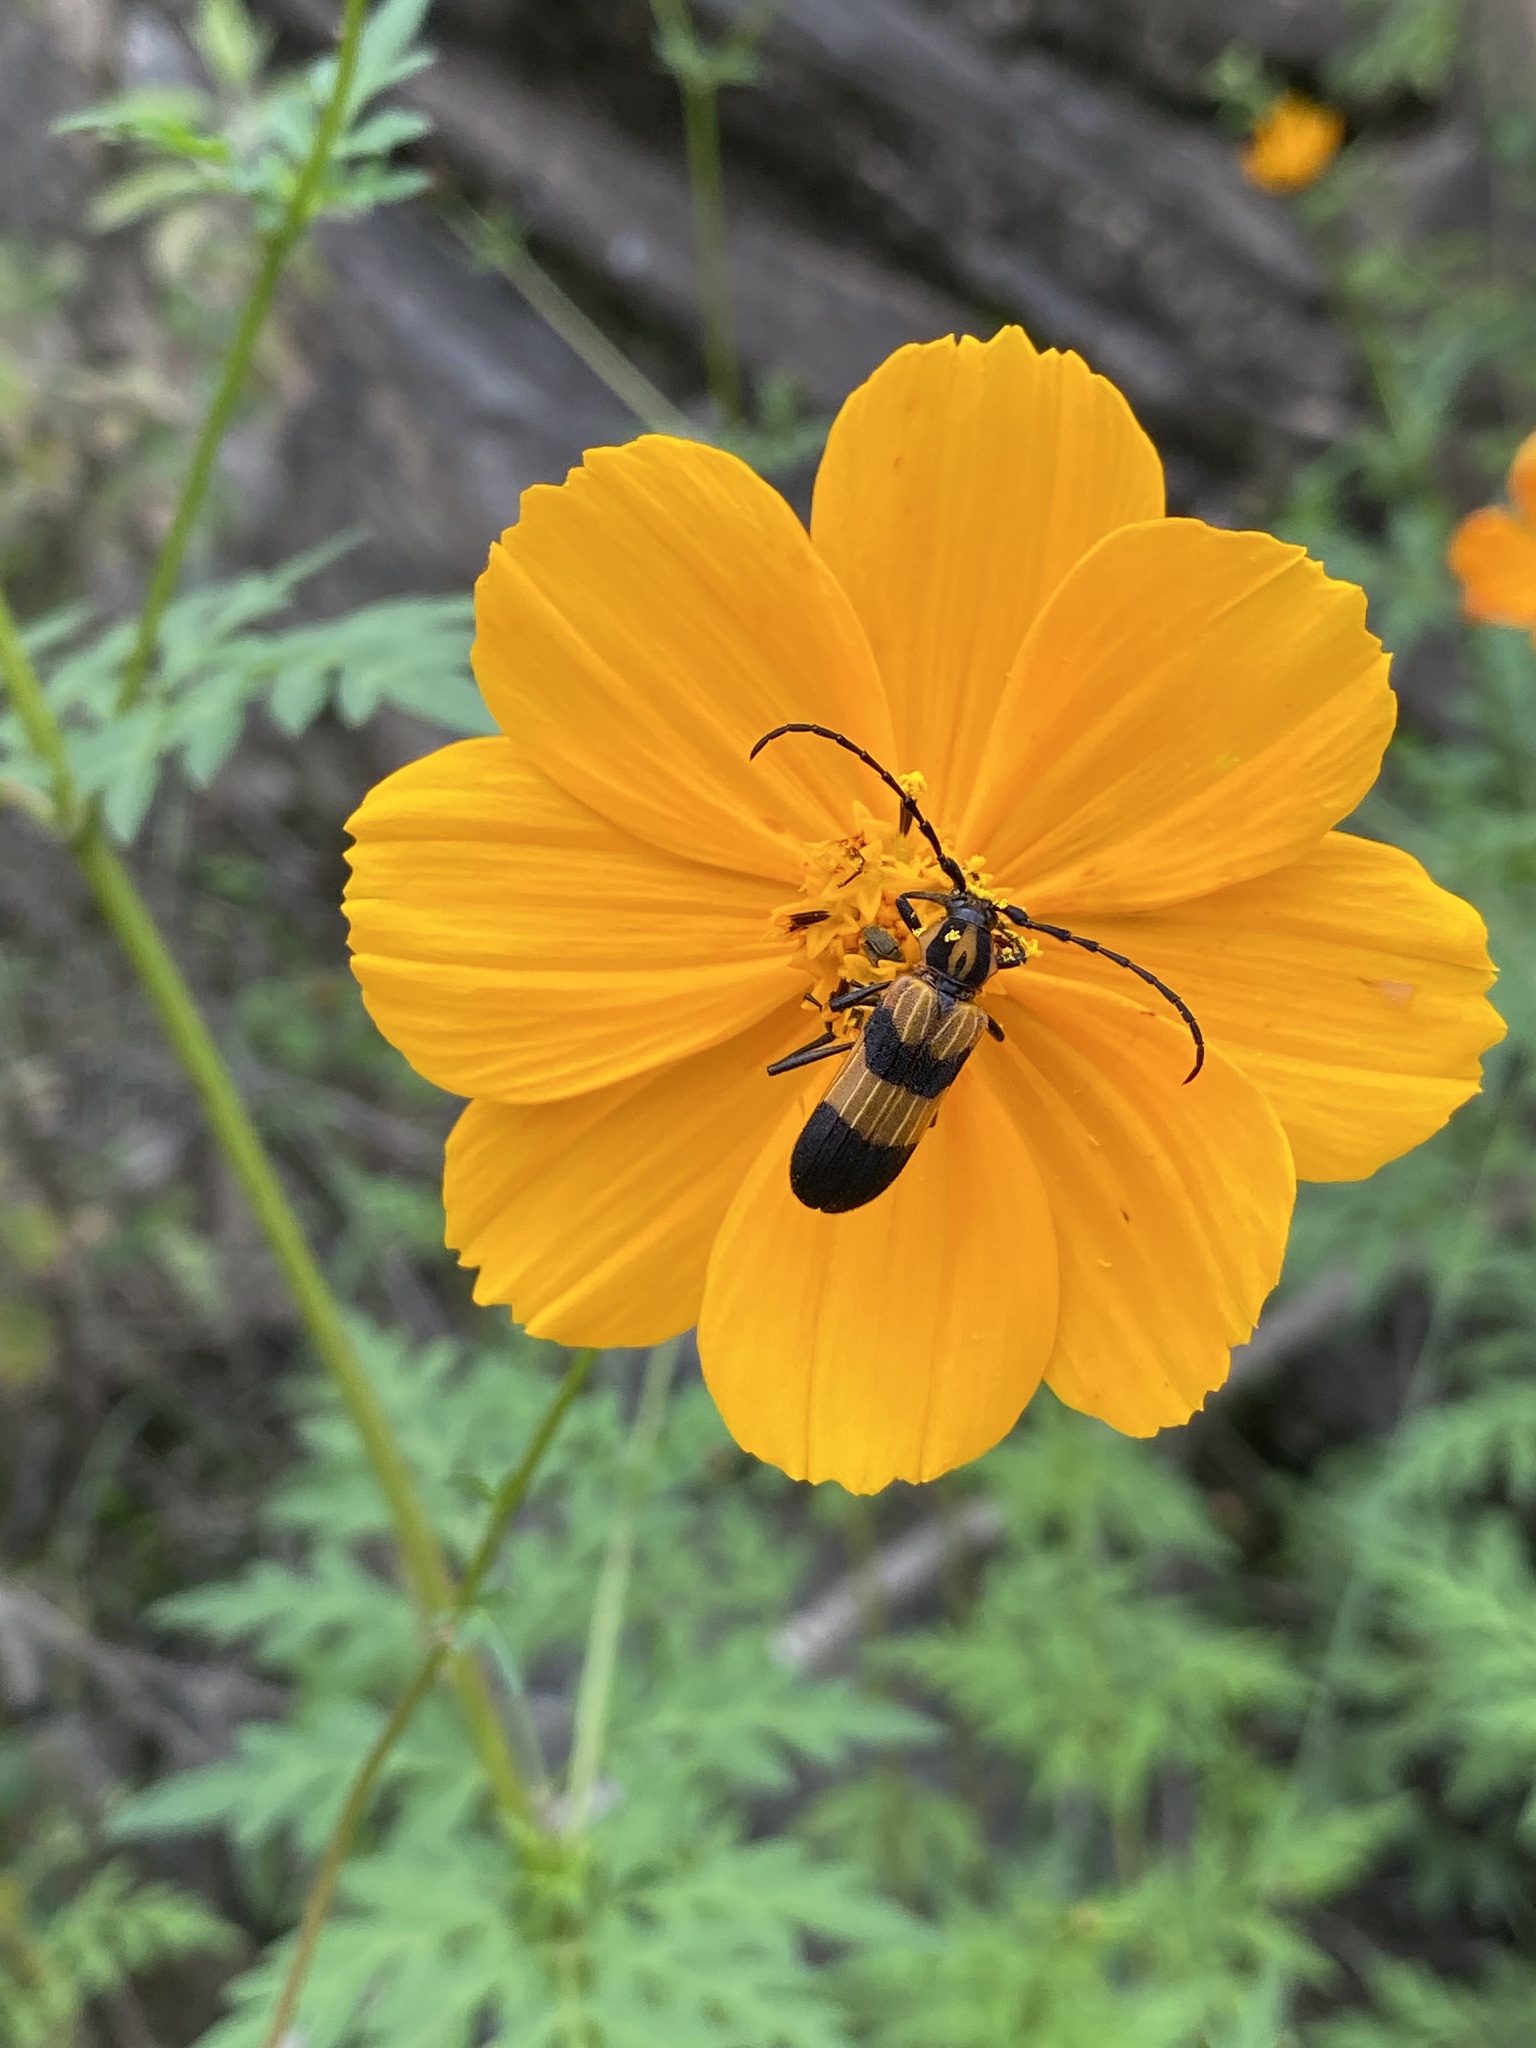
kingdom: Animalia
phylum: Arthropoda
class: Insecta
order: Coleoptera
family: Cerambycidae
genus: Parevander
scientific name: Parevander hovorei
